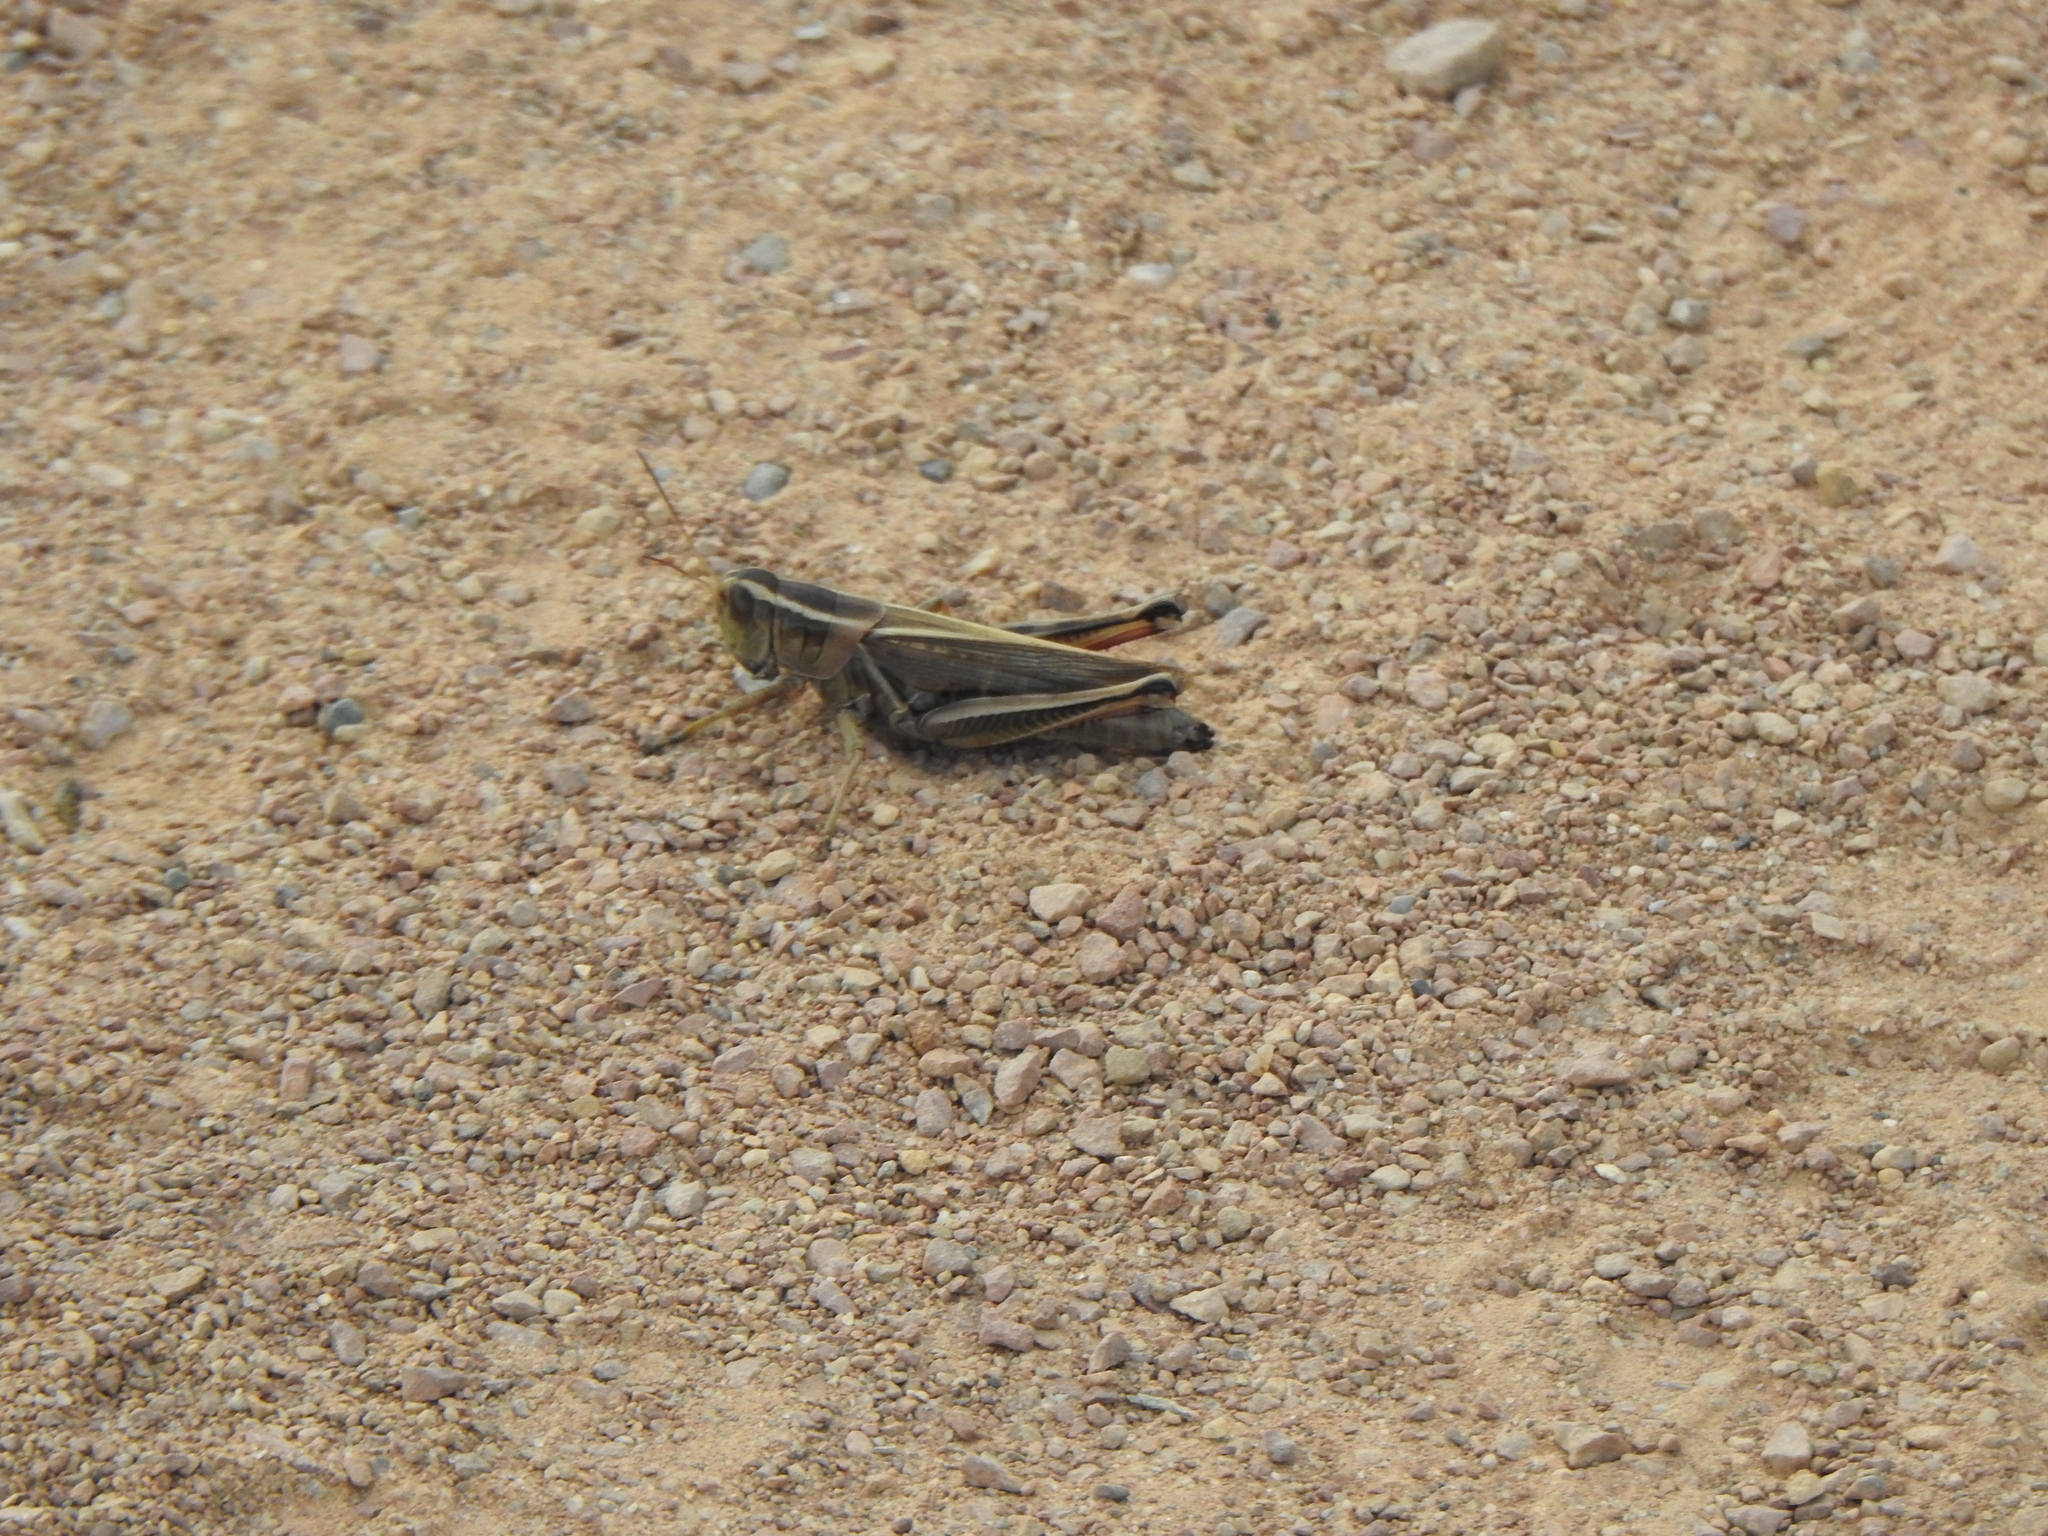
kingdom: Animalia
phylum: Arthropoda
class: Insecta
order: Orthoptera
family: Acrididae
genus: Melanoplus
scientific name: Melanoplus bivittatus
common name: Two-striped grasshopper
